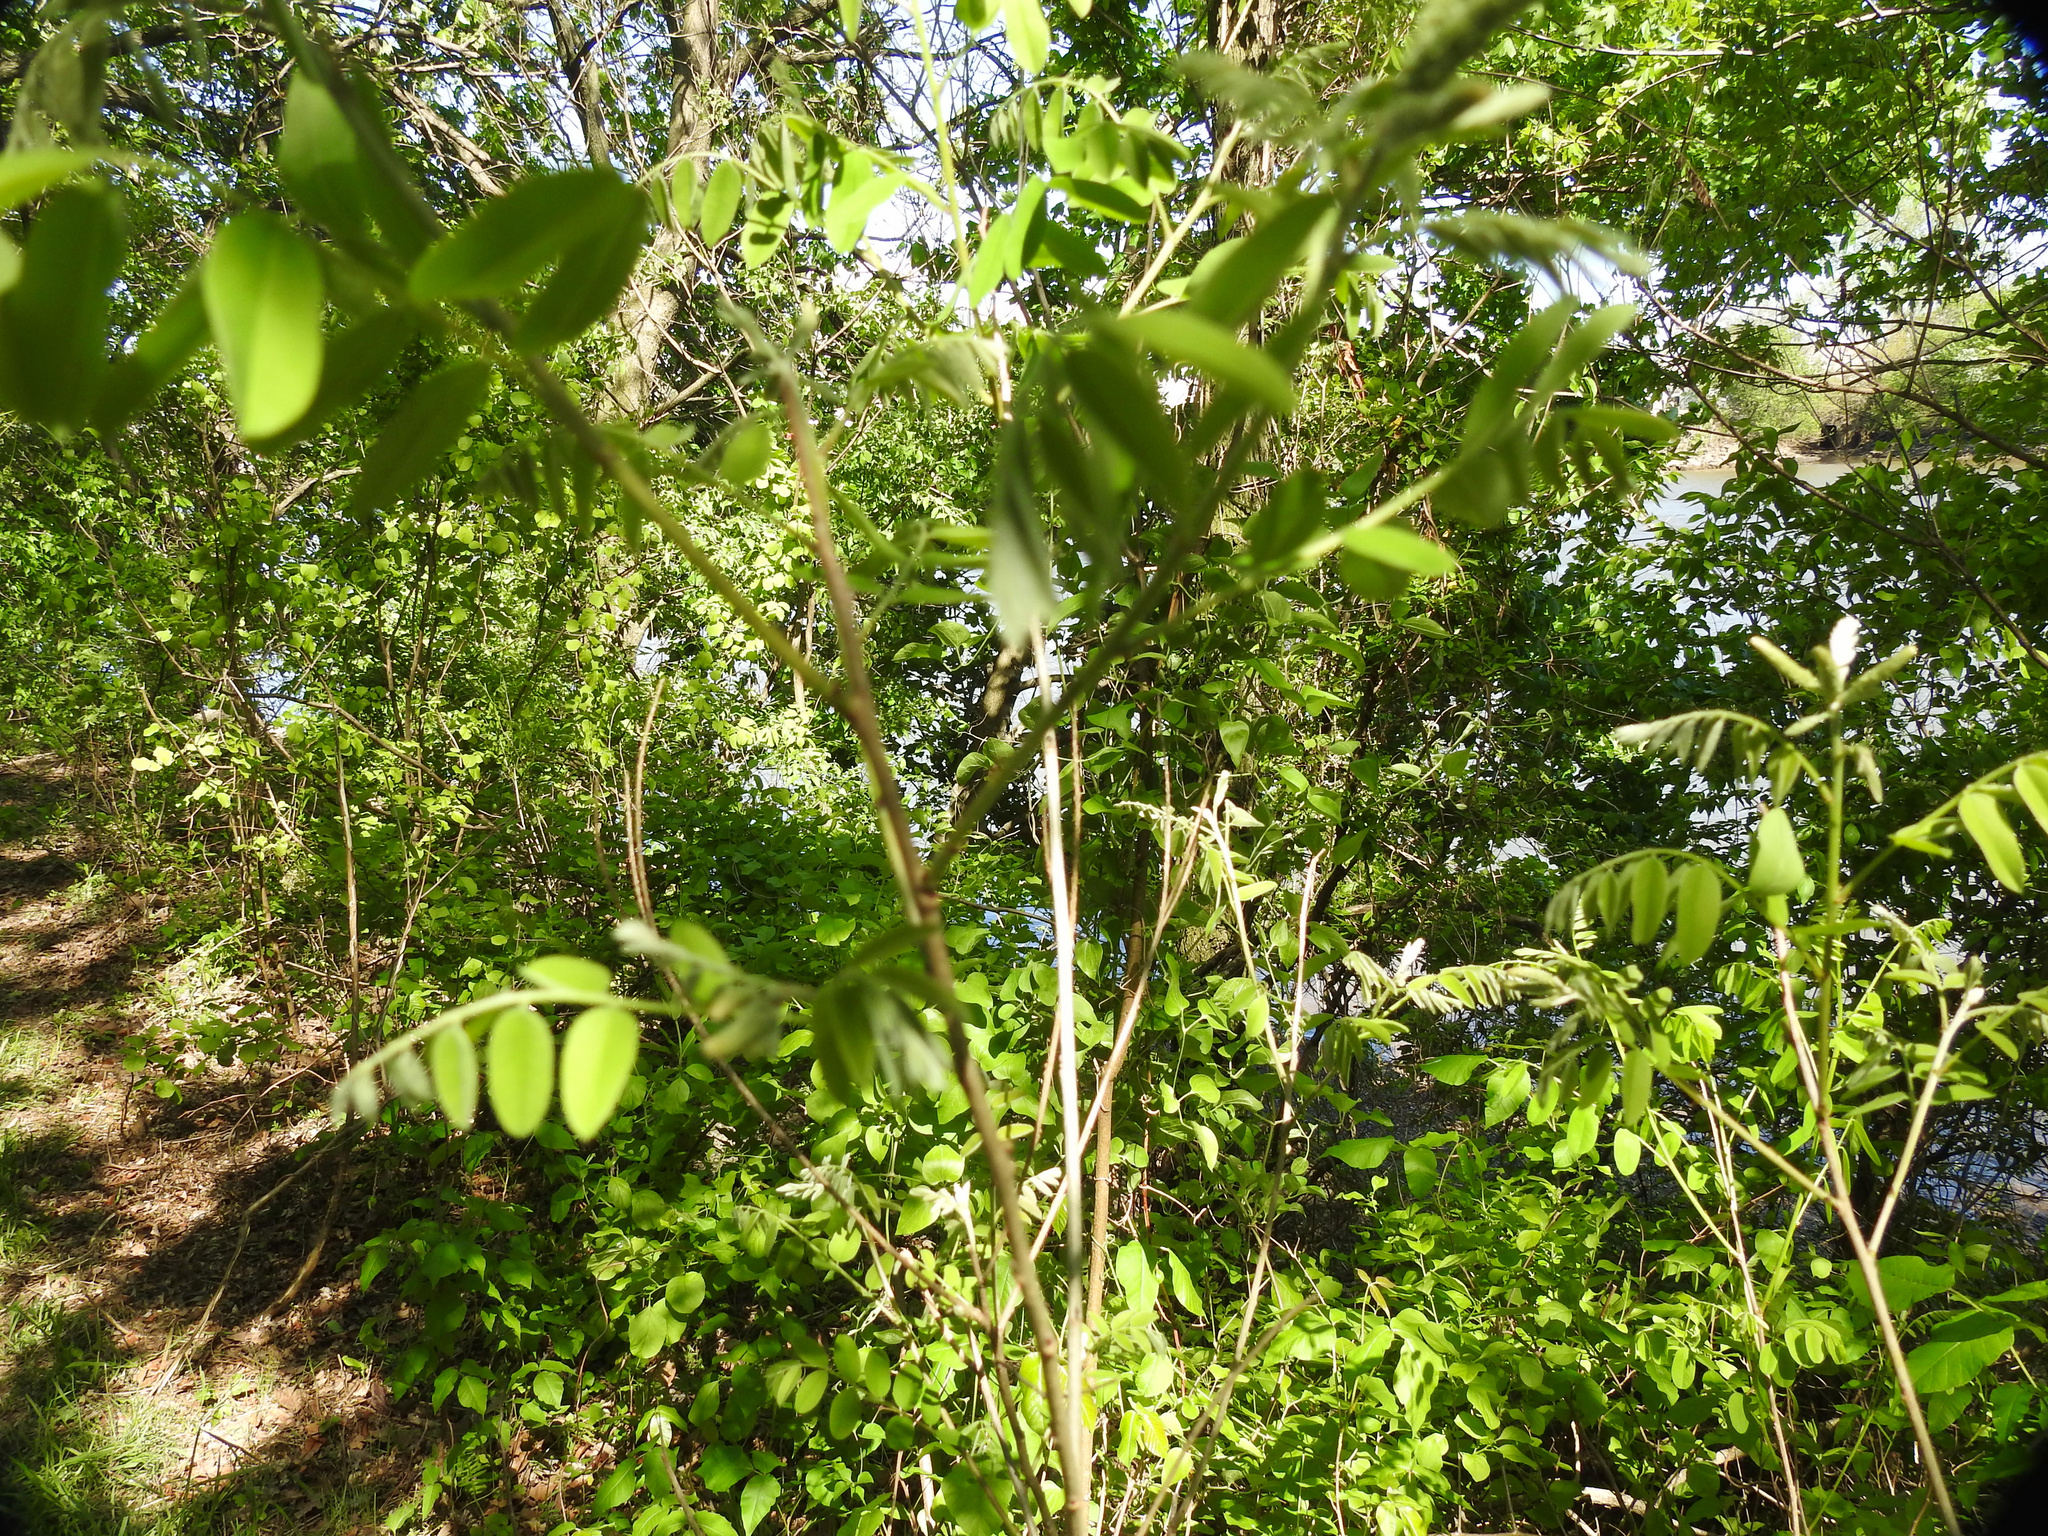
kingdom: Plantae
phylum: Tracheophyta
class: Magnoliopsida
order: Fabales
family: Fabaceae
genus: Robinia
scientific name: Robinia pseudoacacia
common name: Black locust
